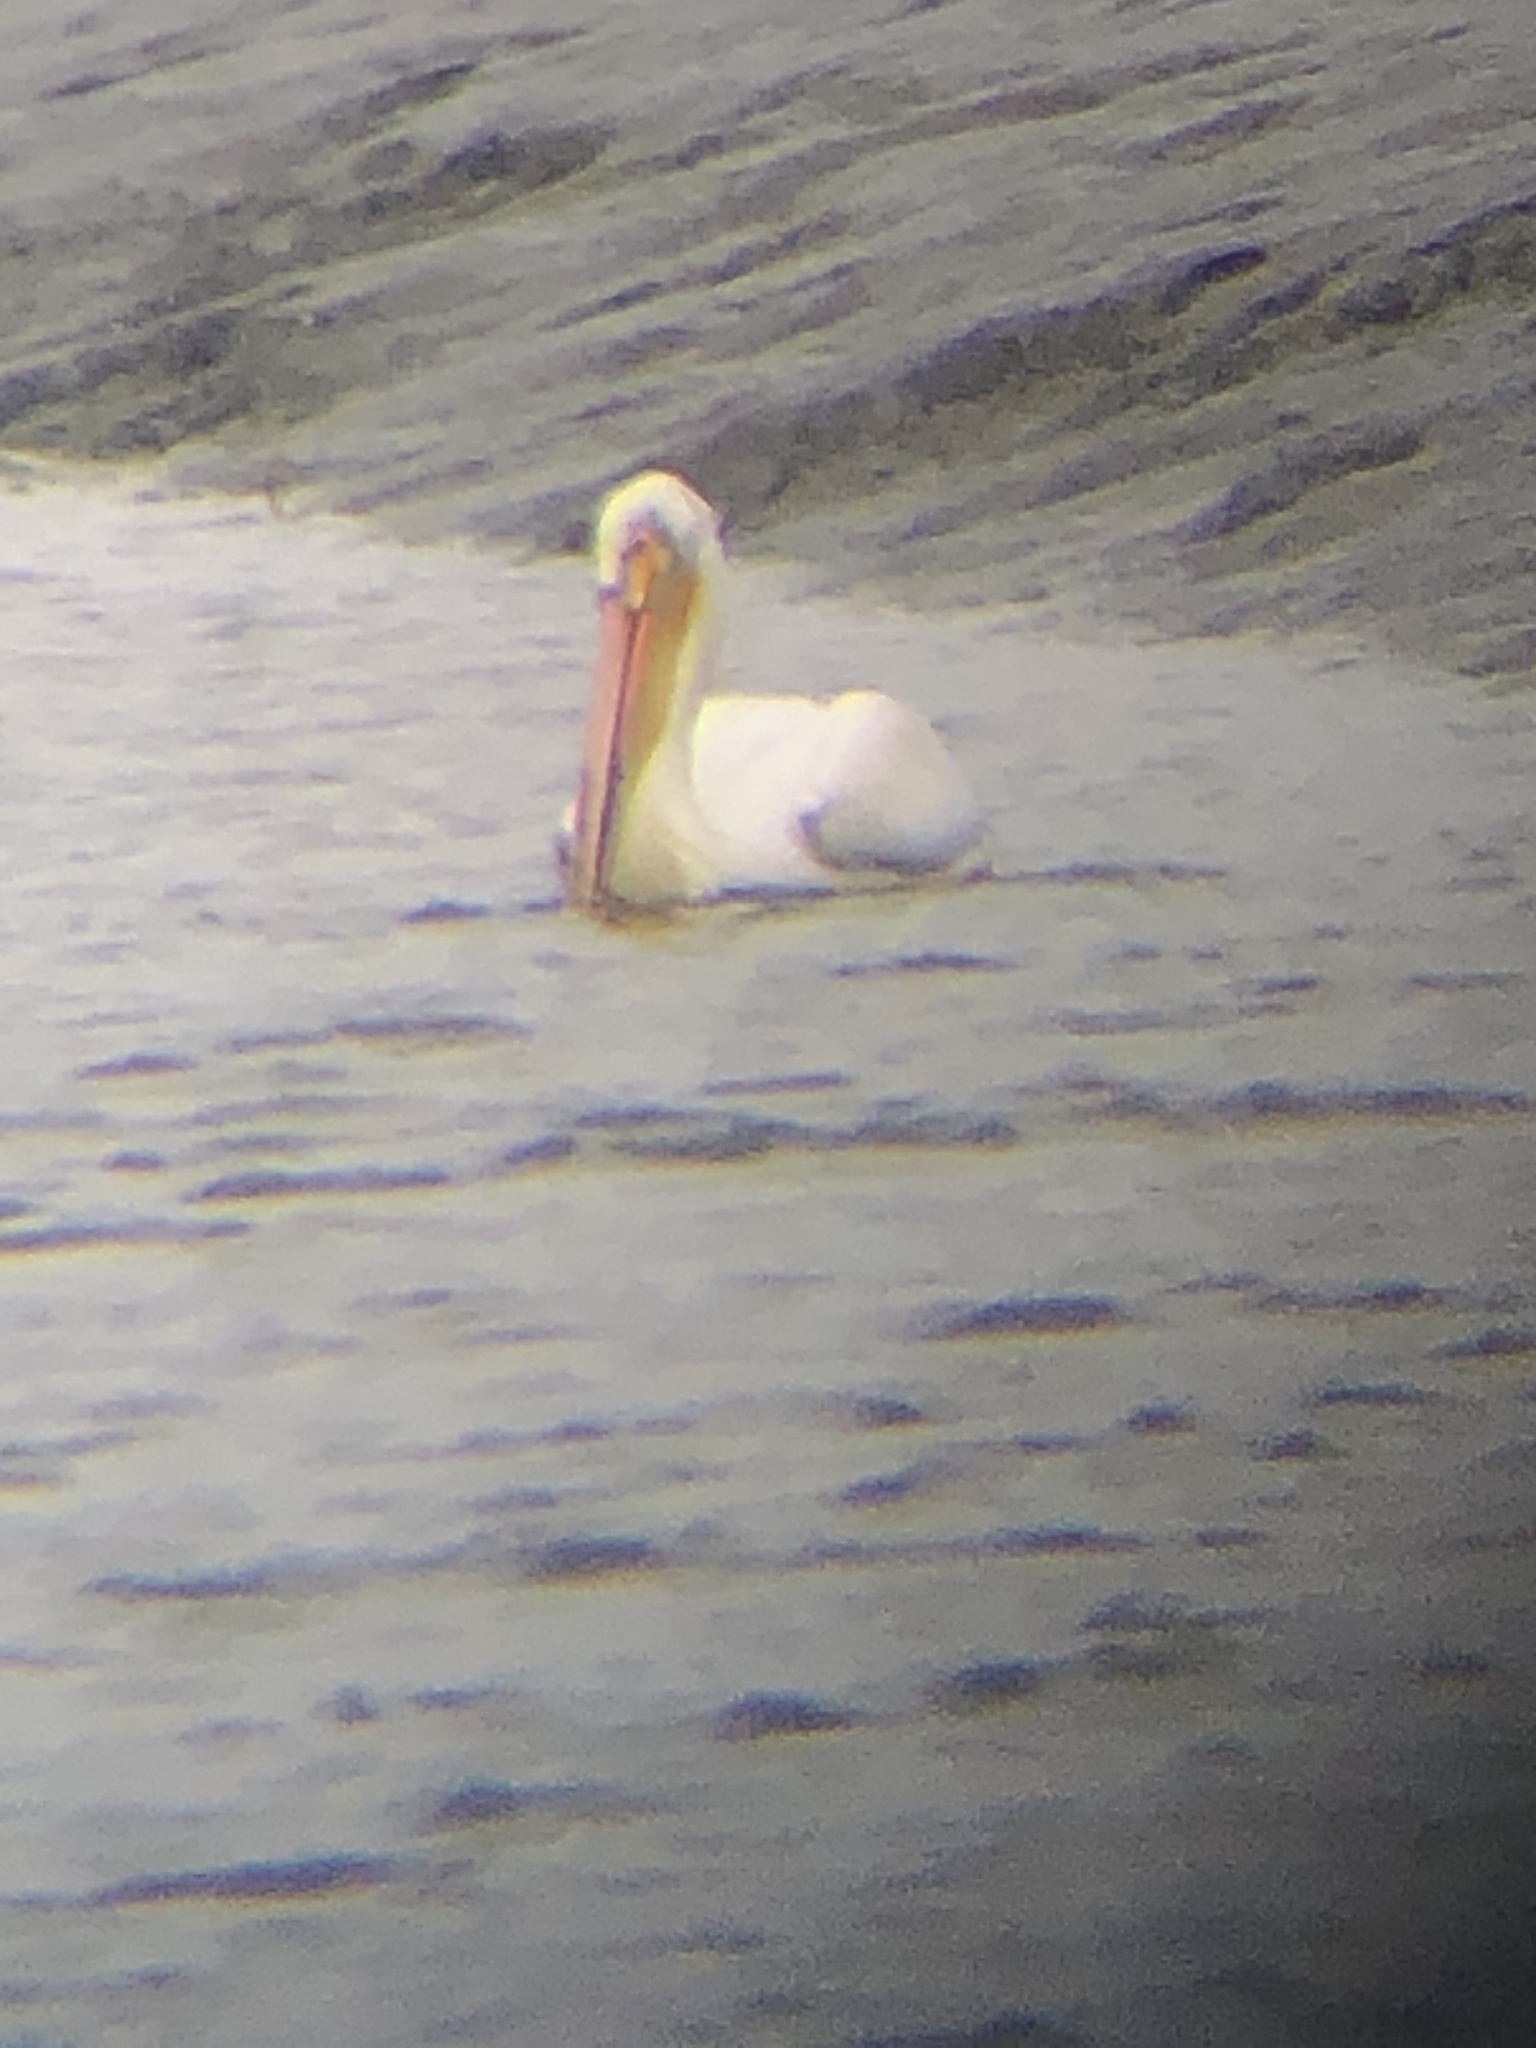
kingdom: Animalia
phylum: Chordata
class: Aves
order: Pelecaniformes
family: Pelecanidae
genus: Pelecanus
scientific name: Pelecanus erythrorhynchos
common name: American white pelican
